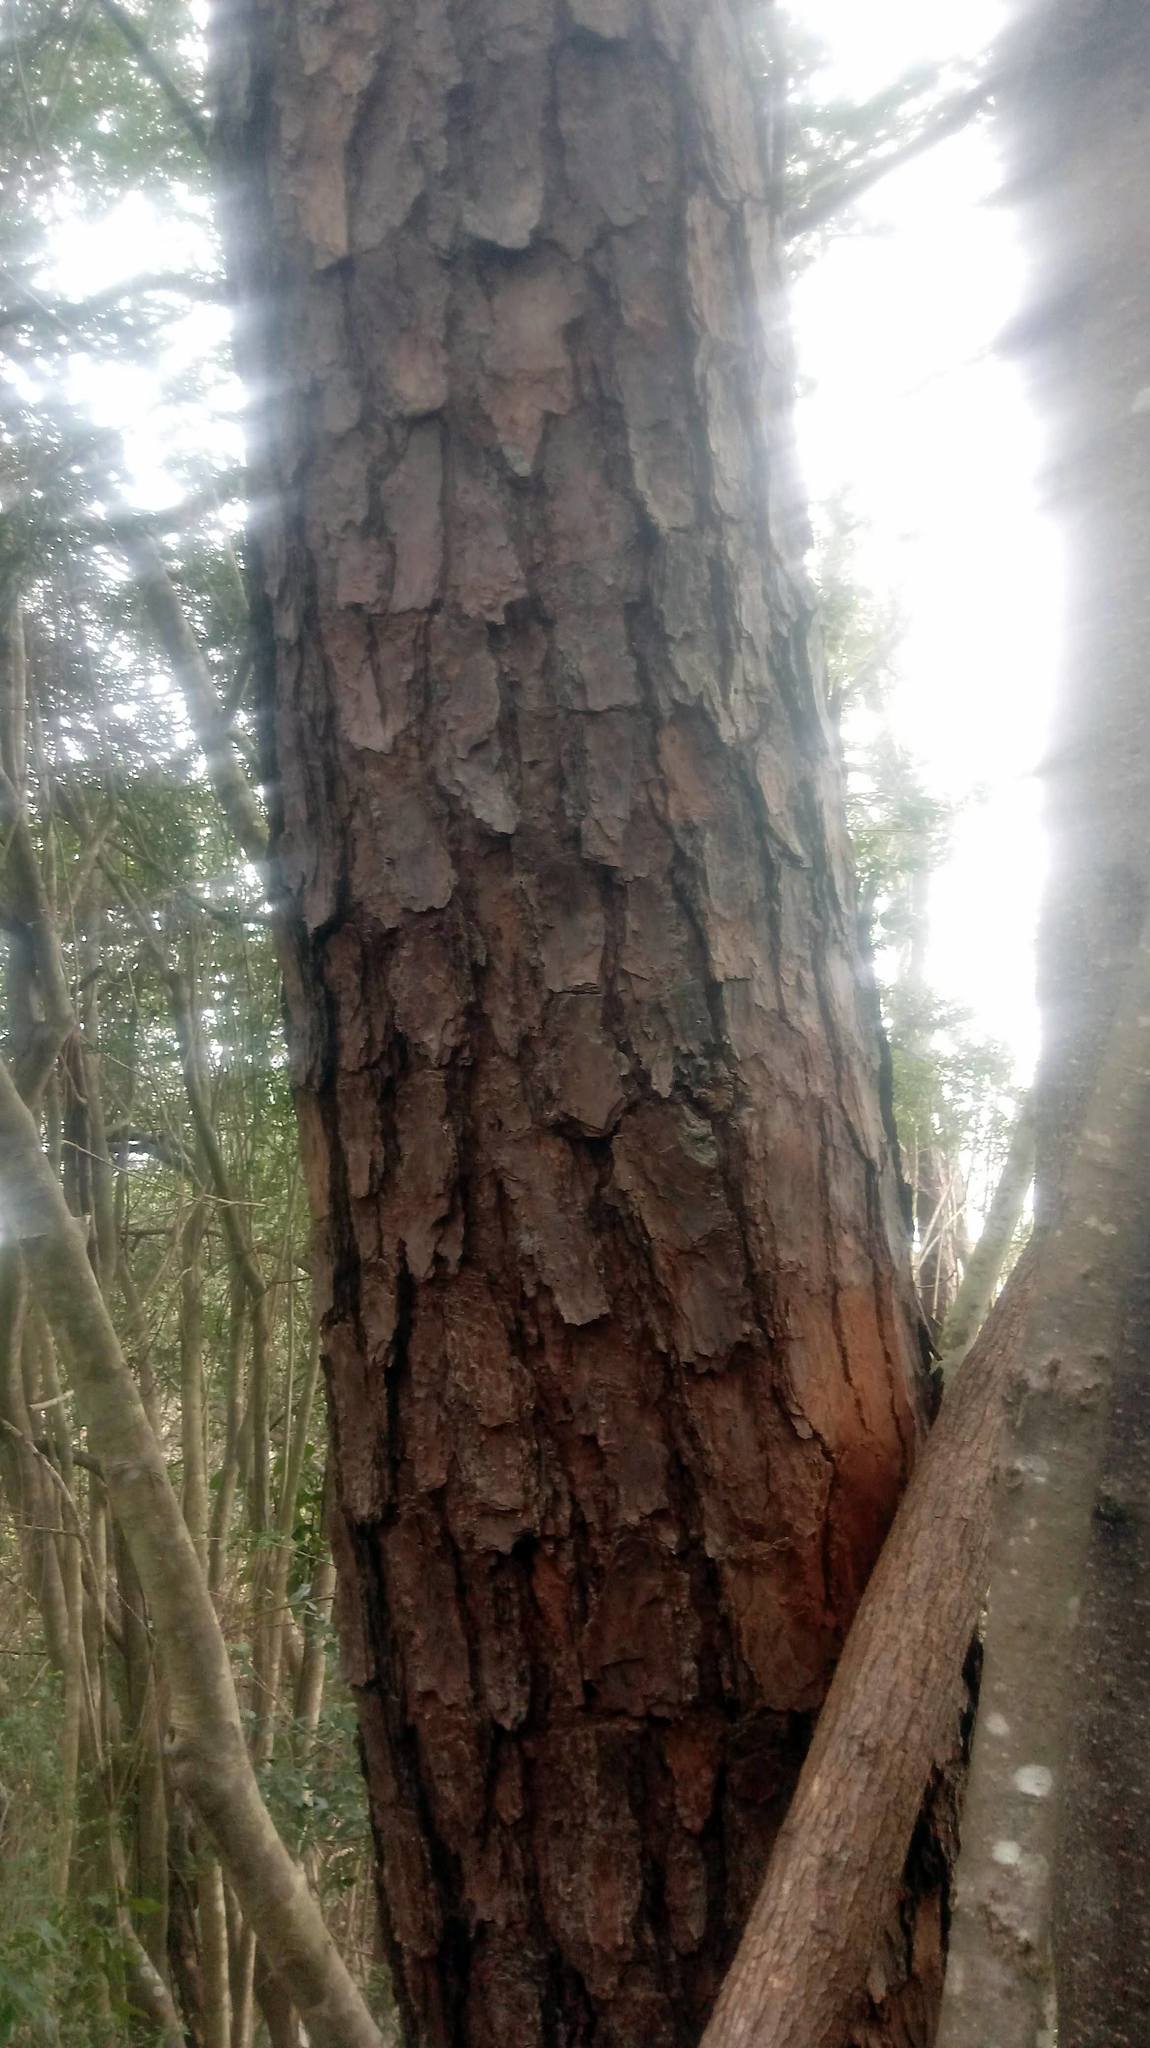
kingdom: Plantae
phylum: Tracheophyta
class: Pinopsida
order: Pinales
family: Pinaceae
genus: Pinus
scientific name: Pinus taeda
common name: Loblolly pine
